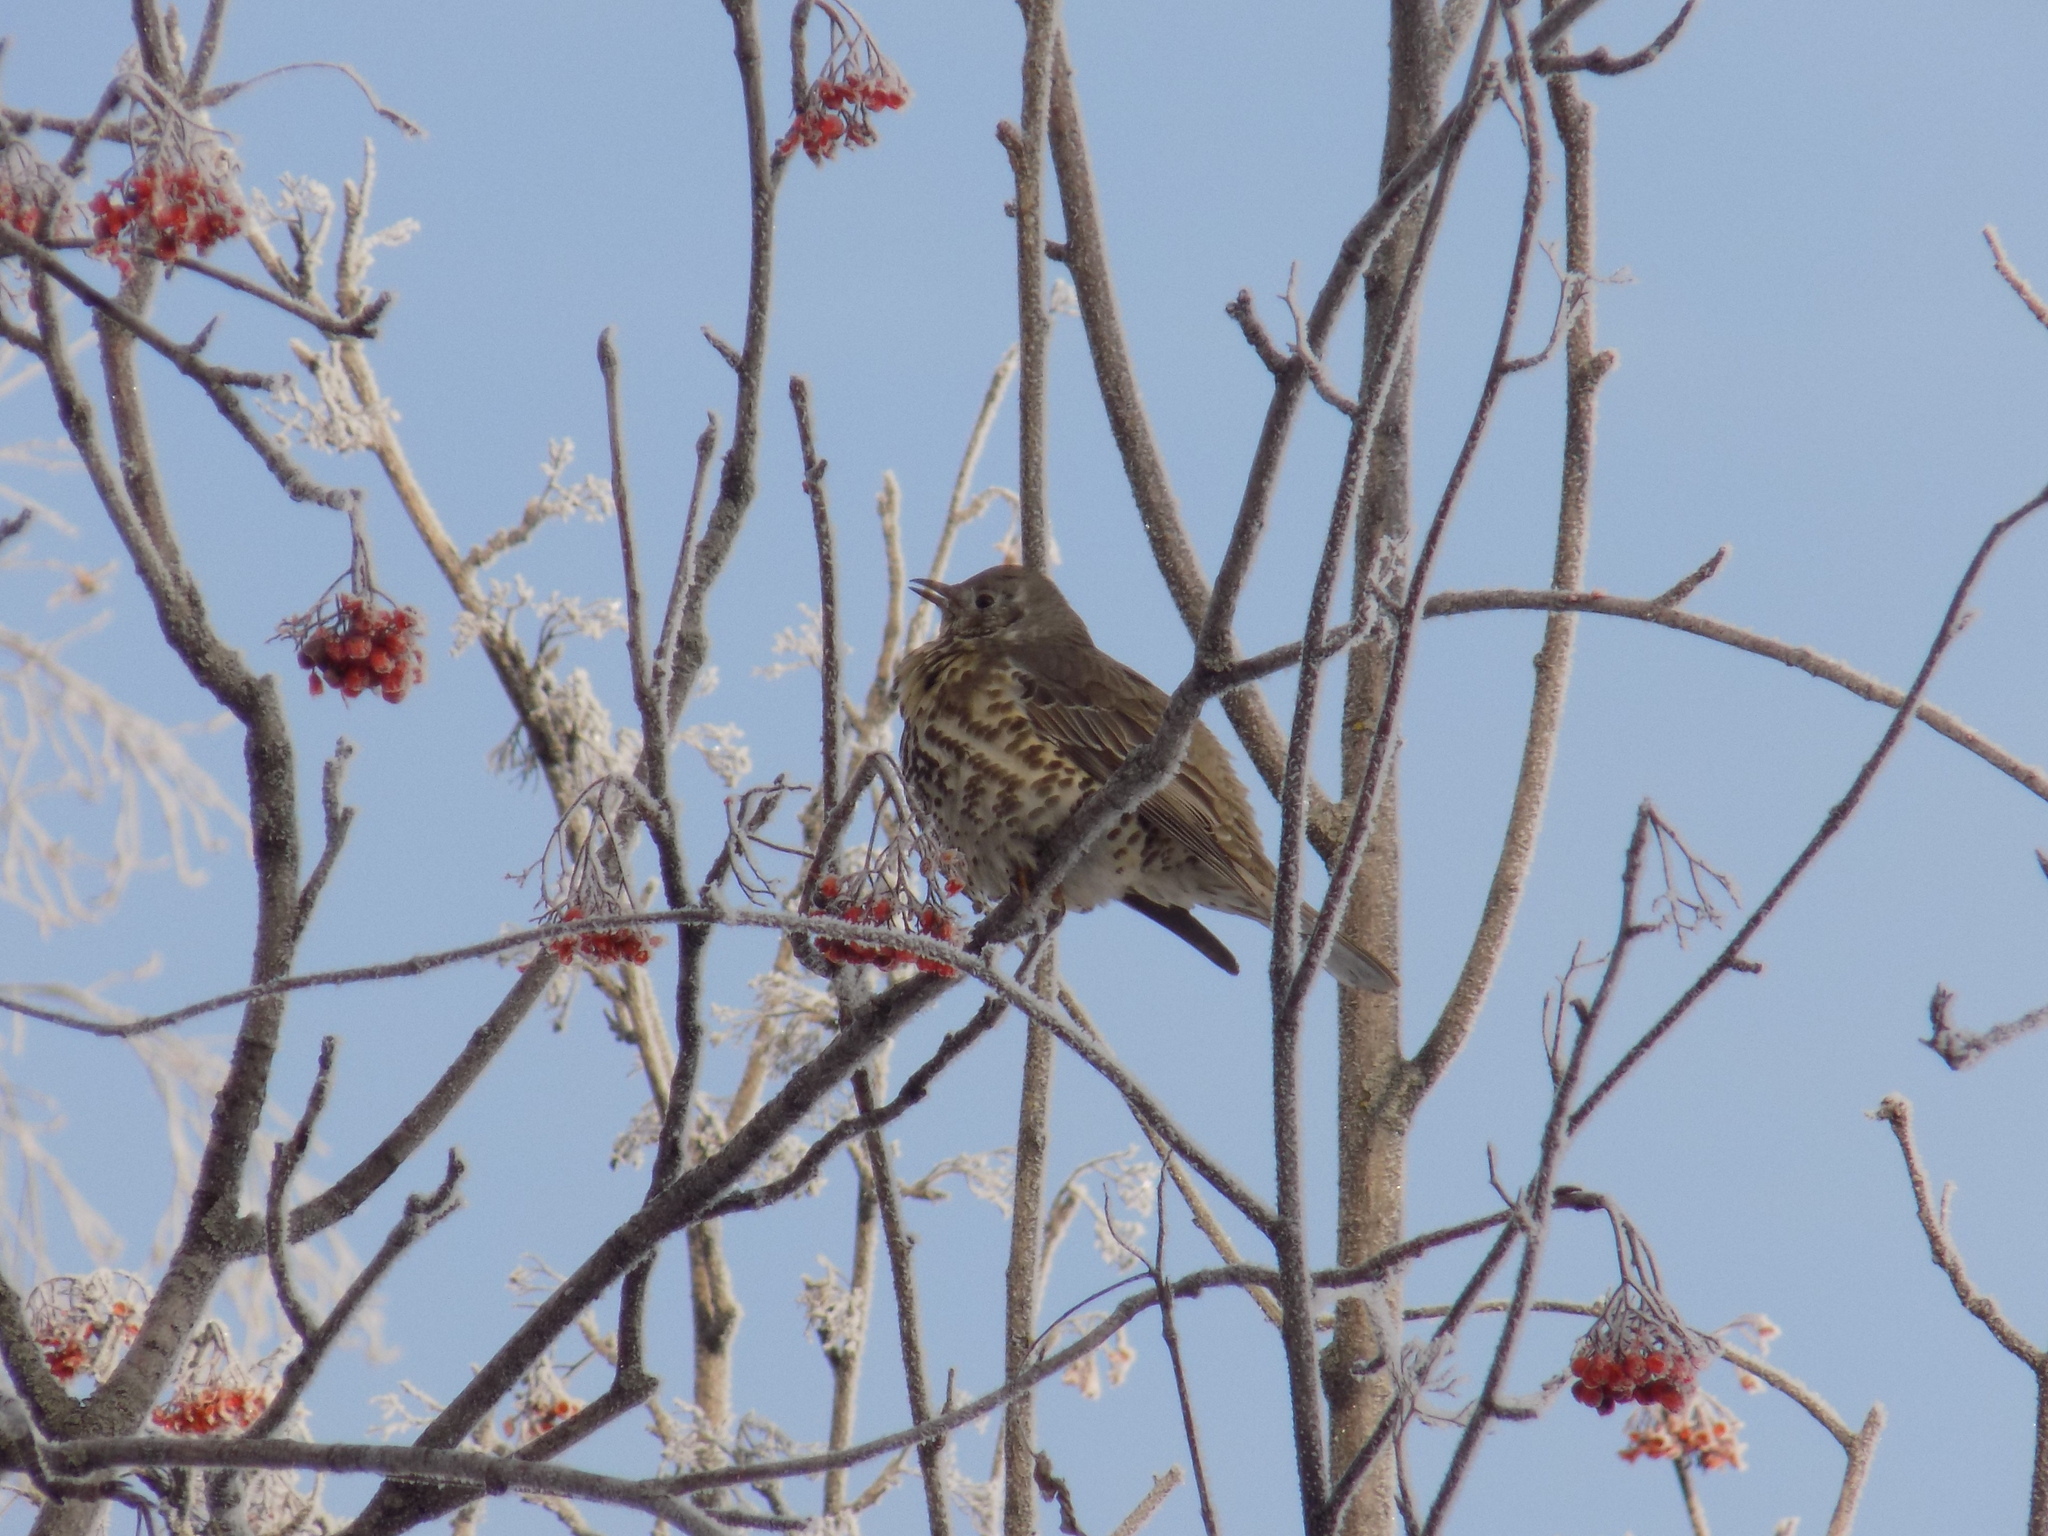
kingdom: Animalia
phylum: Chordata
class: Aves
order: Passeriformes
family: Turdidae
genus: Turdus
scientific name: Turdus viscivorus
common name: Mistle thrush
